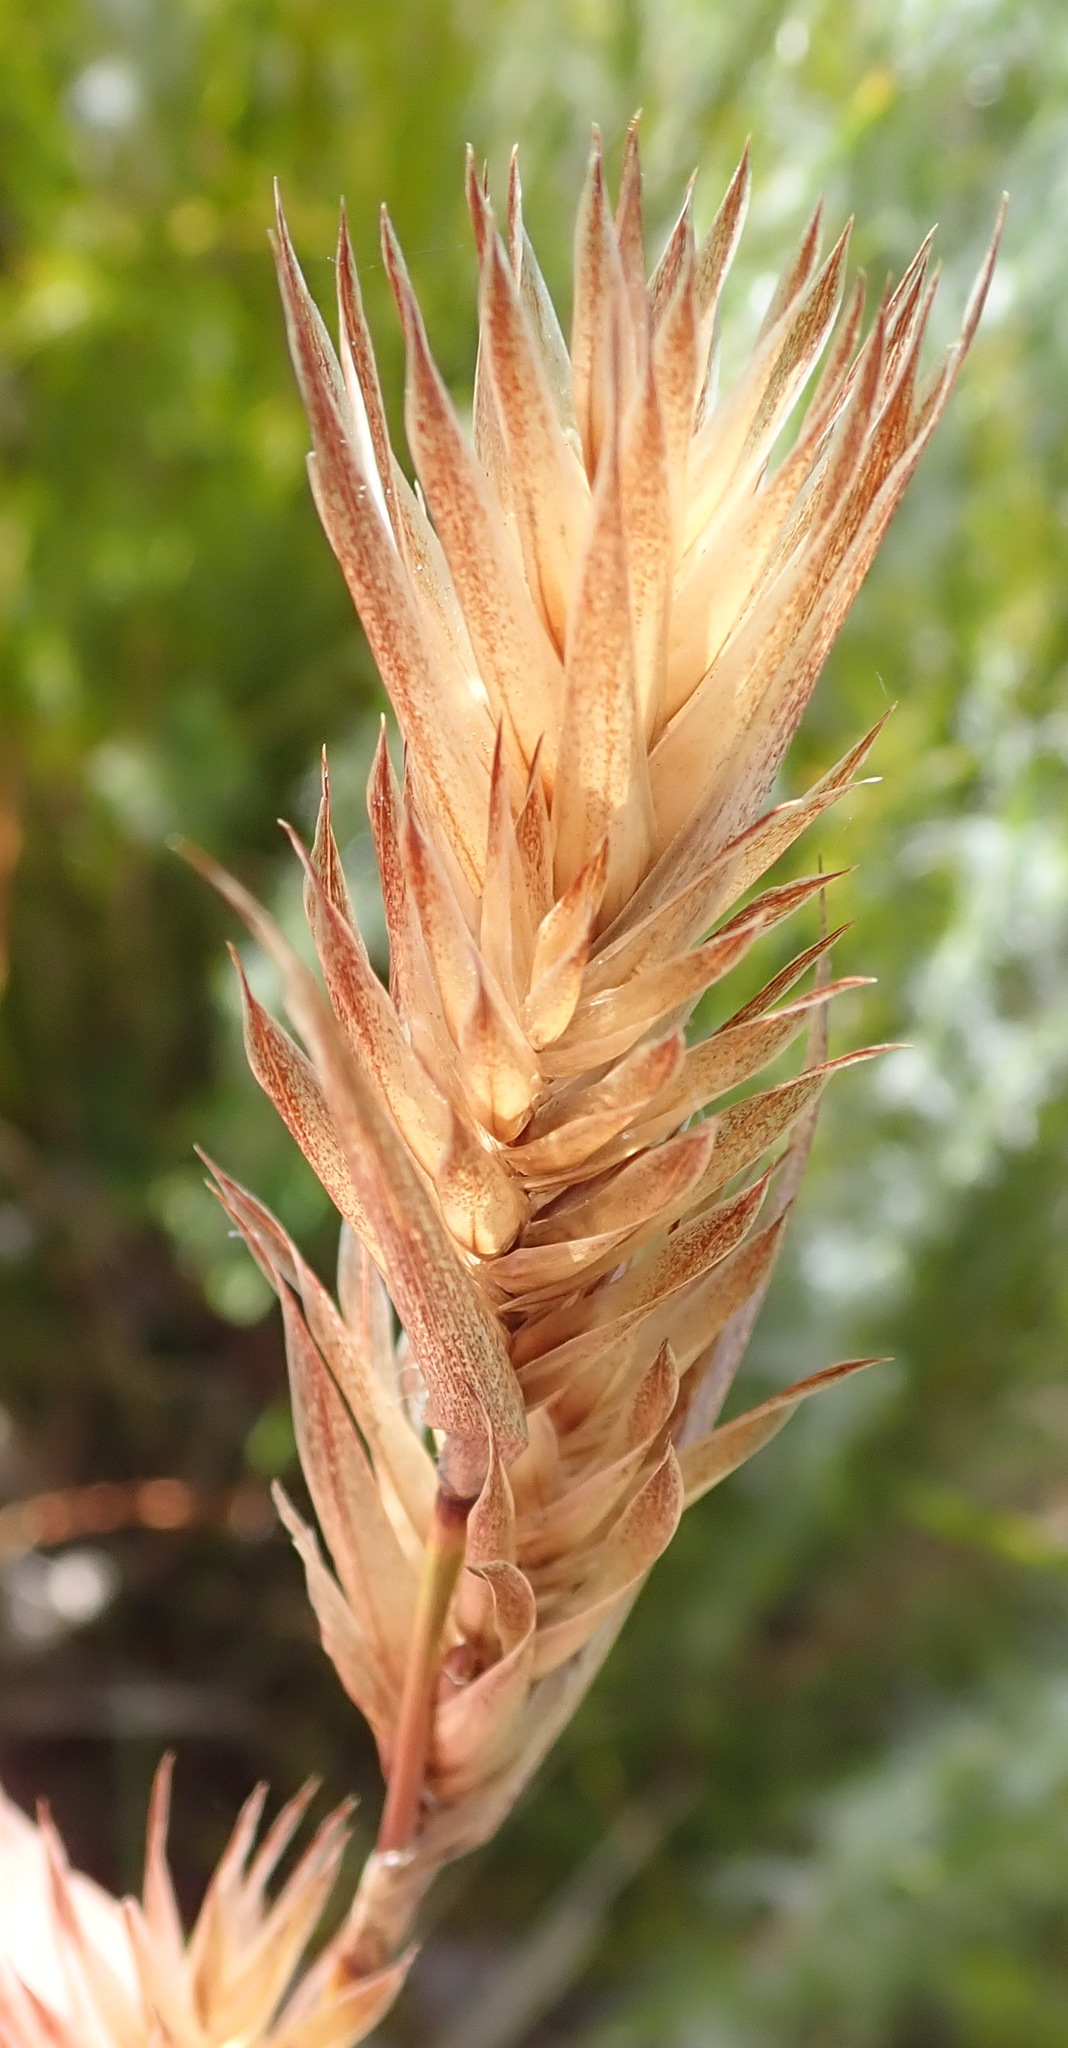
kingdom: Plantae
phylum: Tracheophyta
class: Liliopsida
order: Poales
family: Restionaceae
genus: Thamnochortus
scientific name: Thamnochortus glaber
